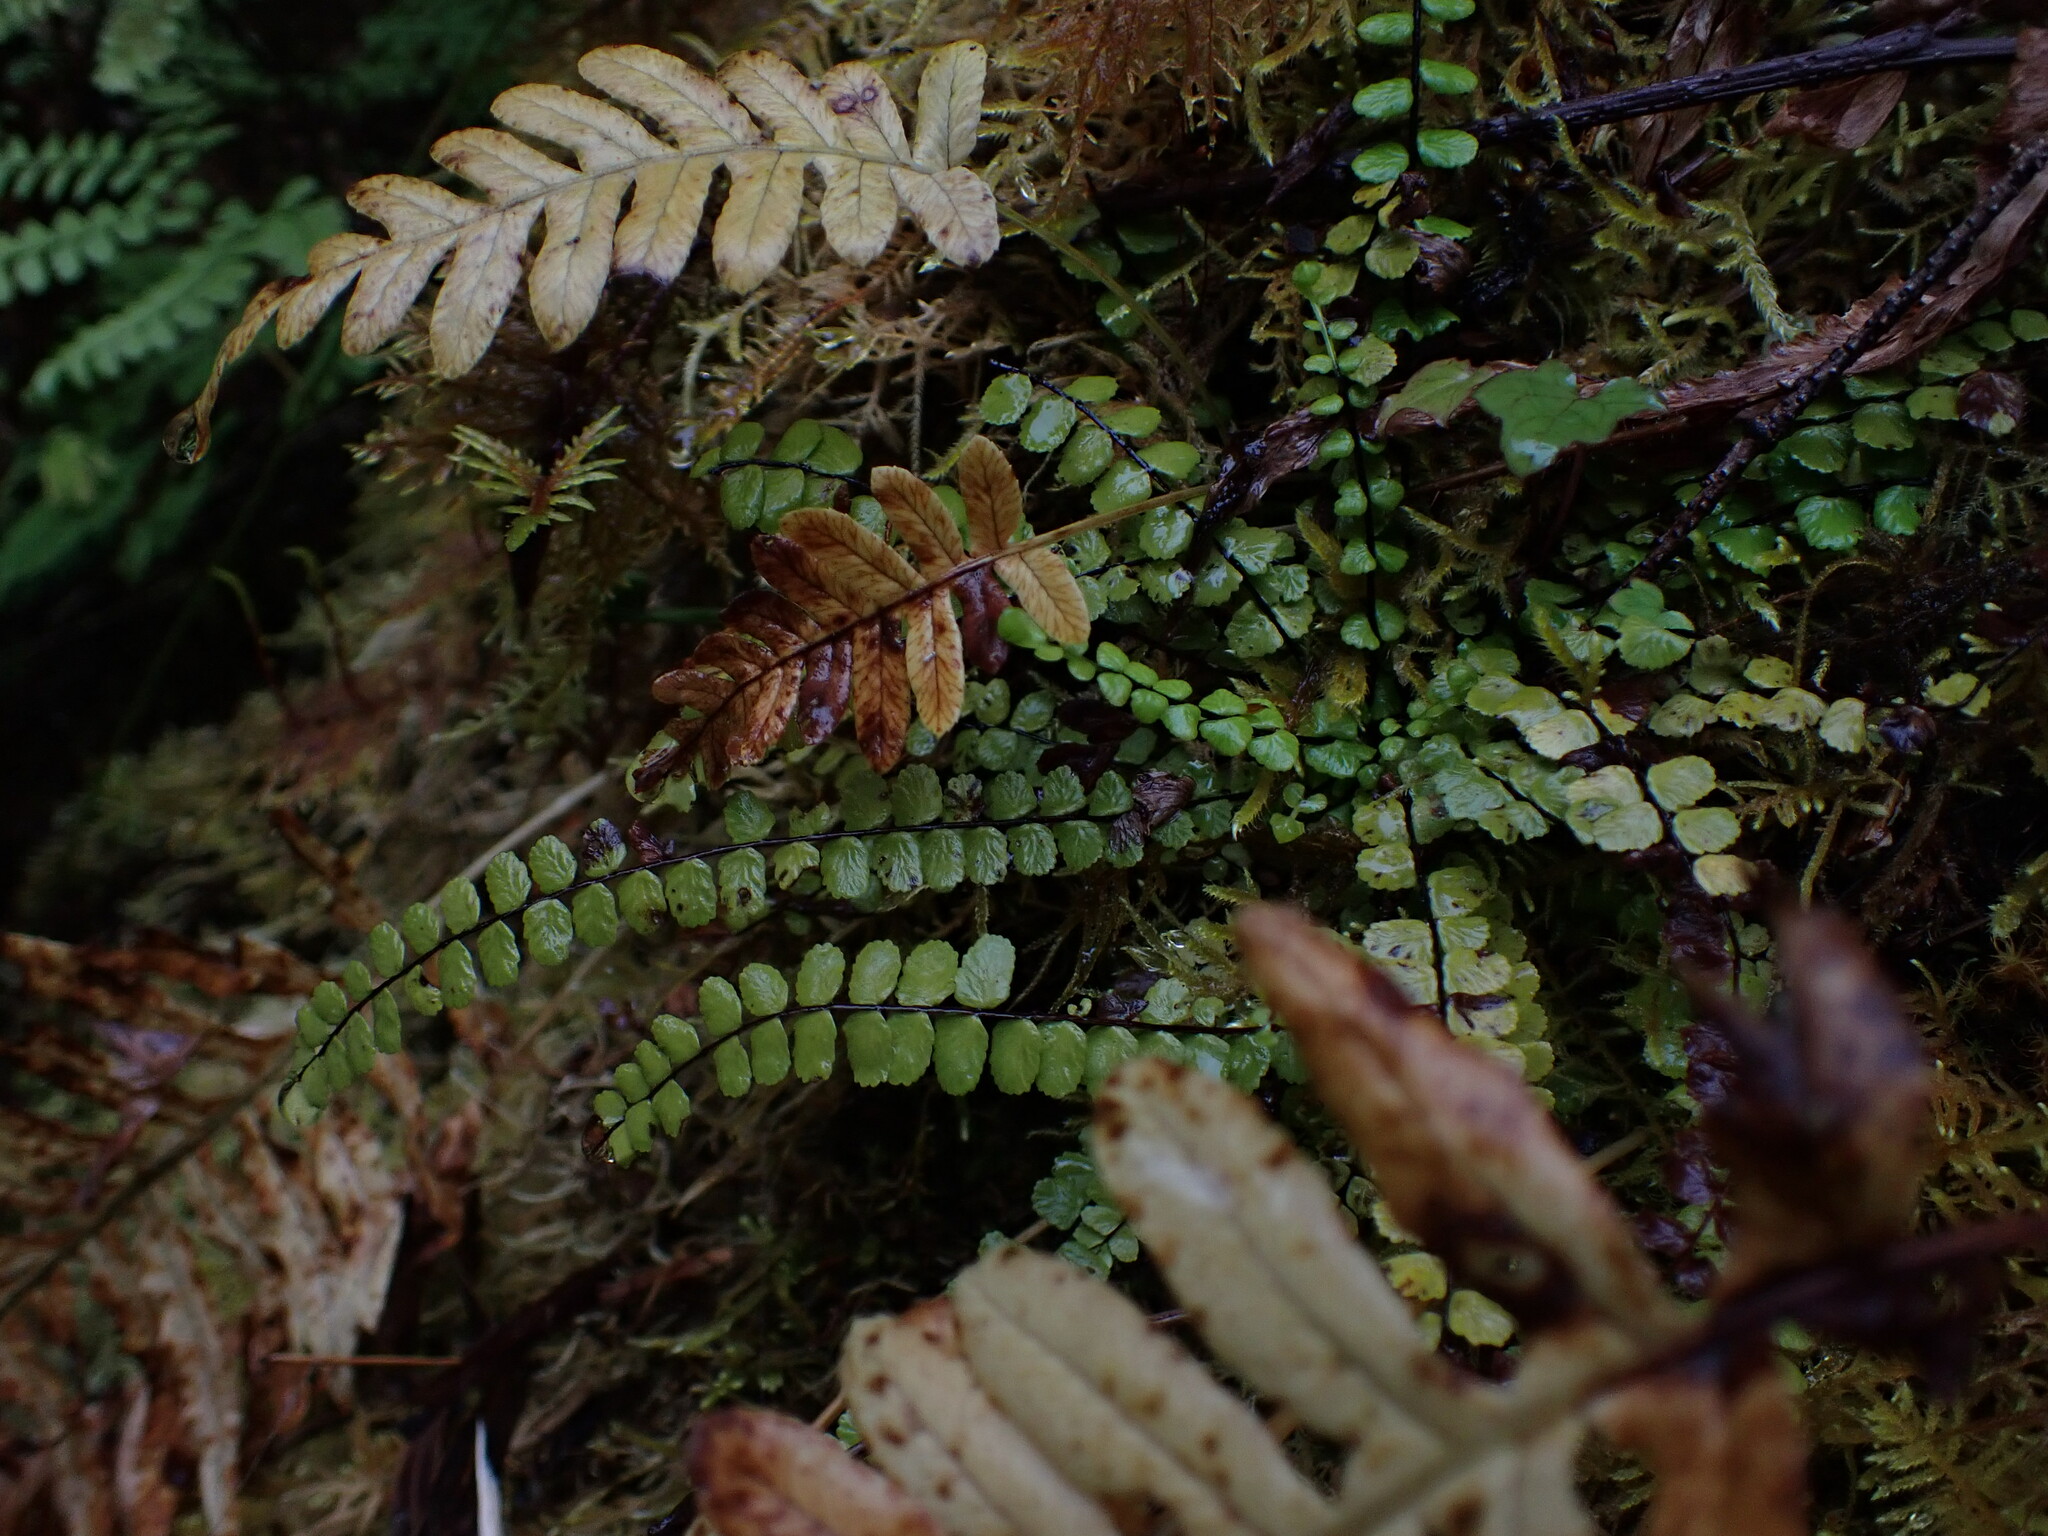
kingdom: Plantae
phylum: Tracheophyta
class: Polypodiopsida
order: Polypodiales
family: Aspleniaceae
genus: Asplenium
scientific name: Asplenium trichomanes
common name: Maidenhair spleenwort
